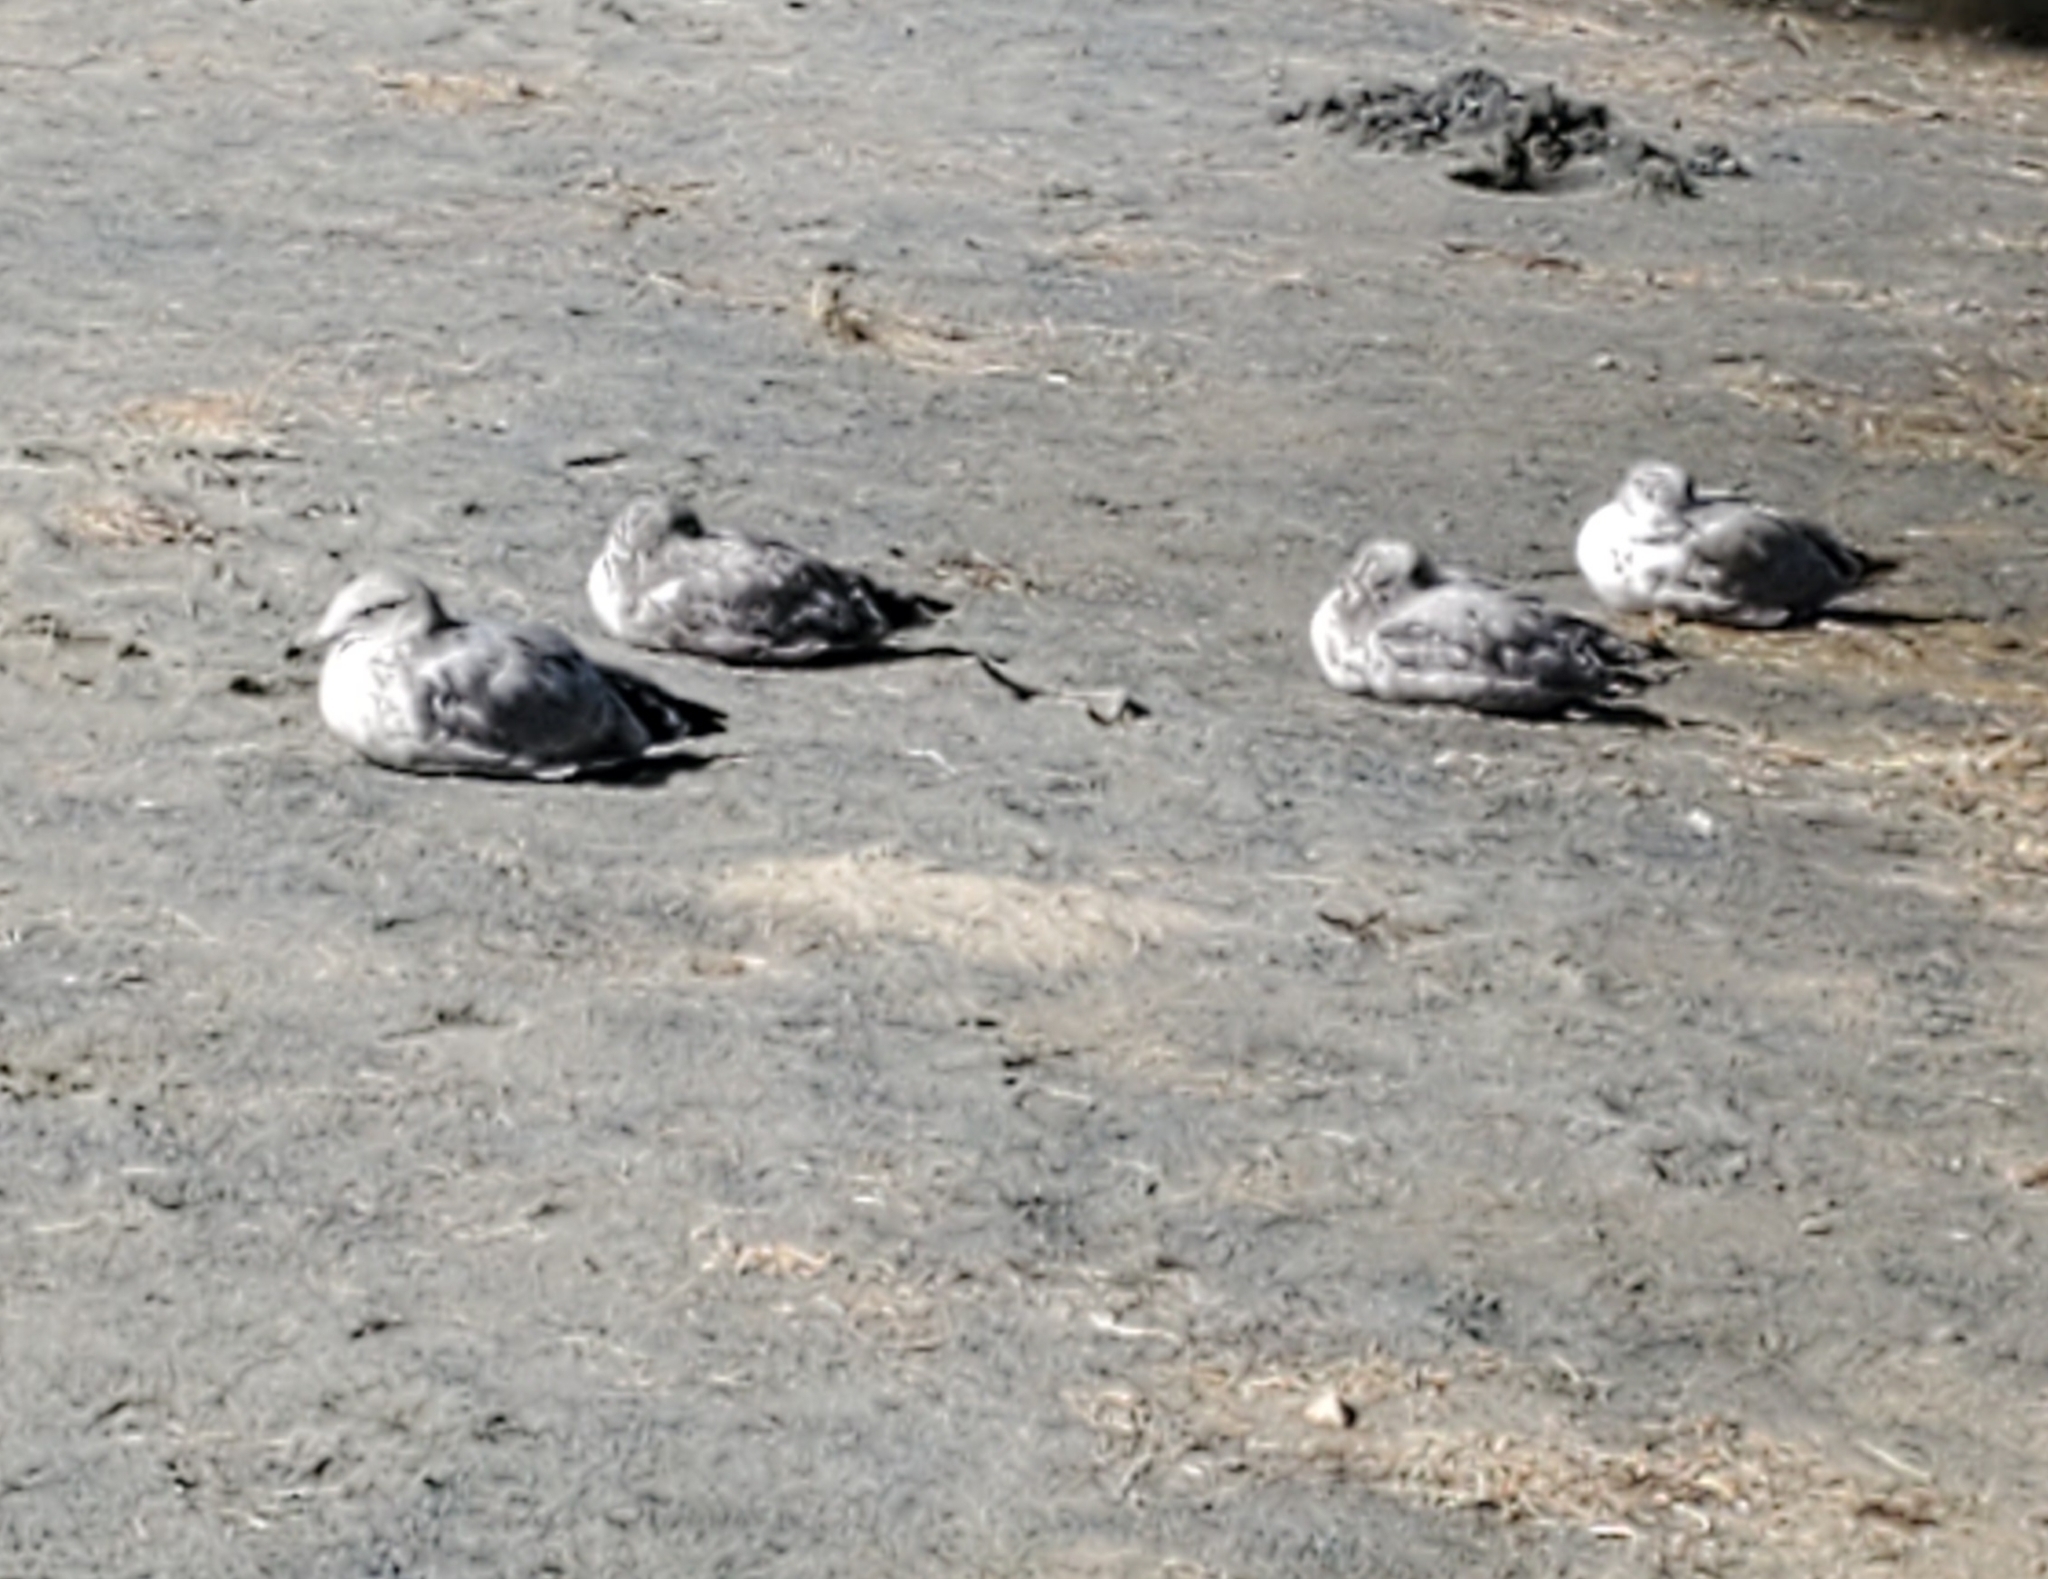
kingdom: Animalia
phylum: Chordata
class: Aves
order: Charadriiformes
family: Laridae
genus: Larus
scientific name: Larus californicus
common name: California gull
